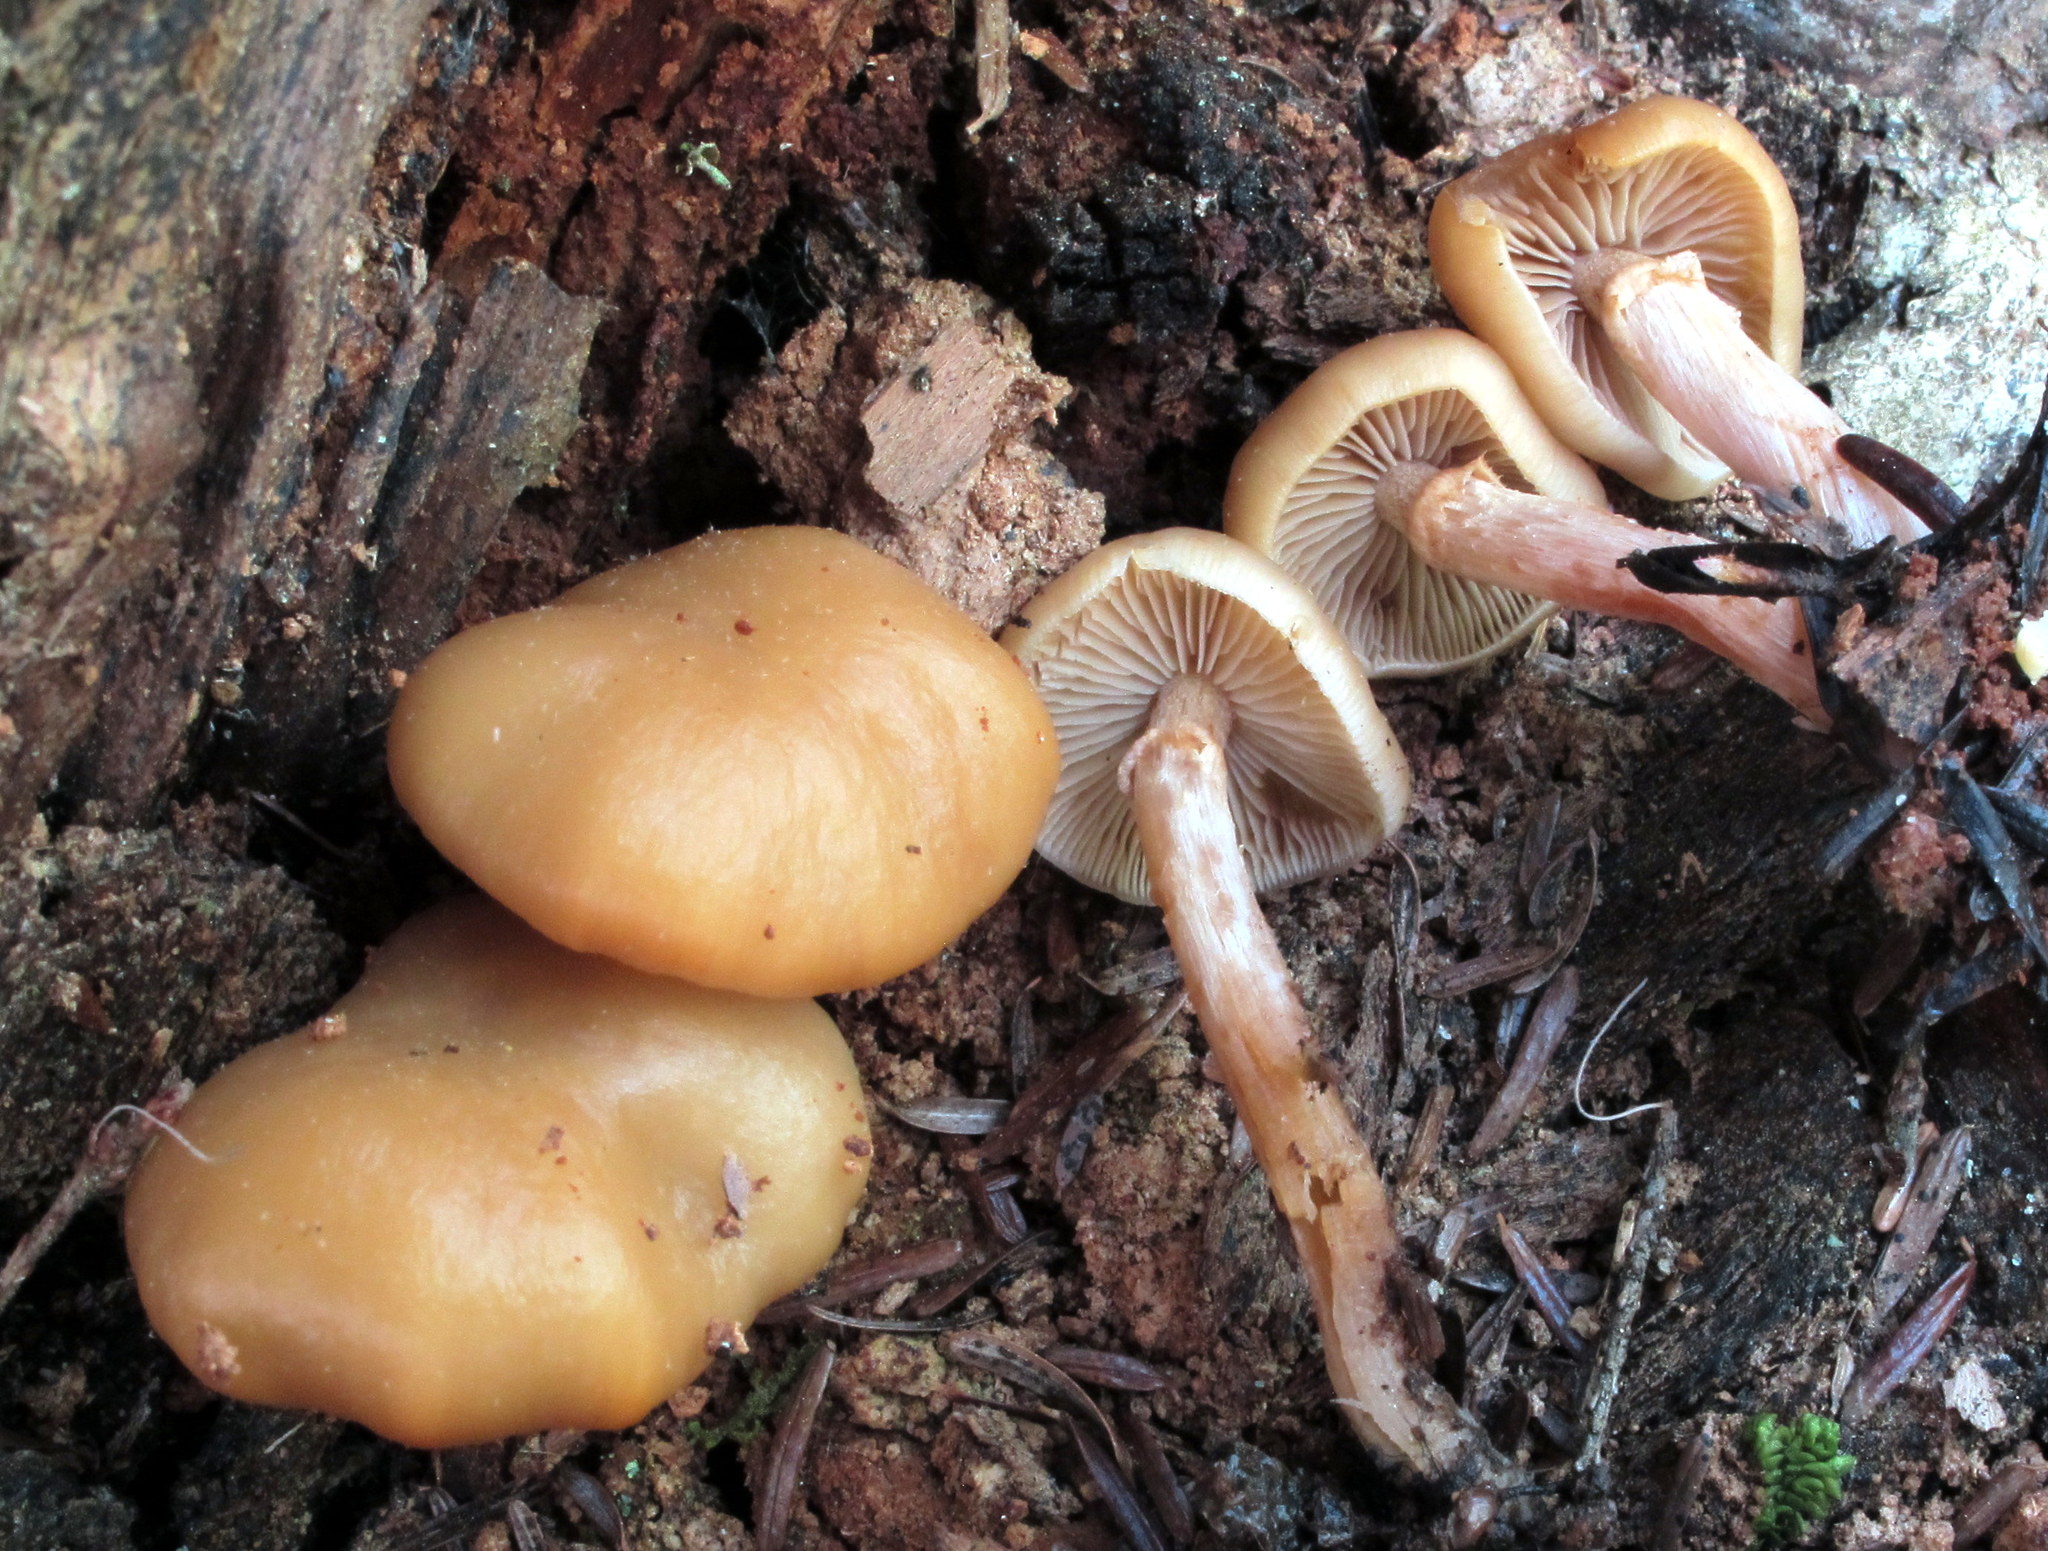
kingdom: Fungi
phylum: Basidiomycota
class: Agaricomycetes
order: Agaricales
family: Strophariaceae
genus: Kuehneromyces
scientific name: Kuehneromyces marginellus
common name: Sheathed woodtuft
